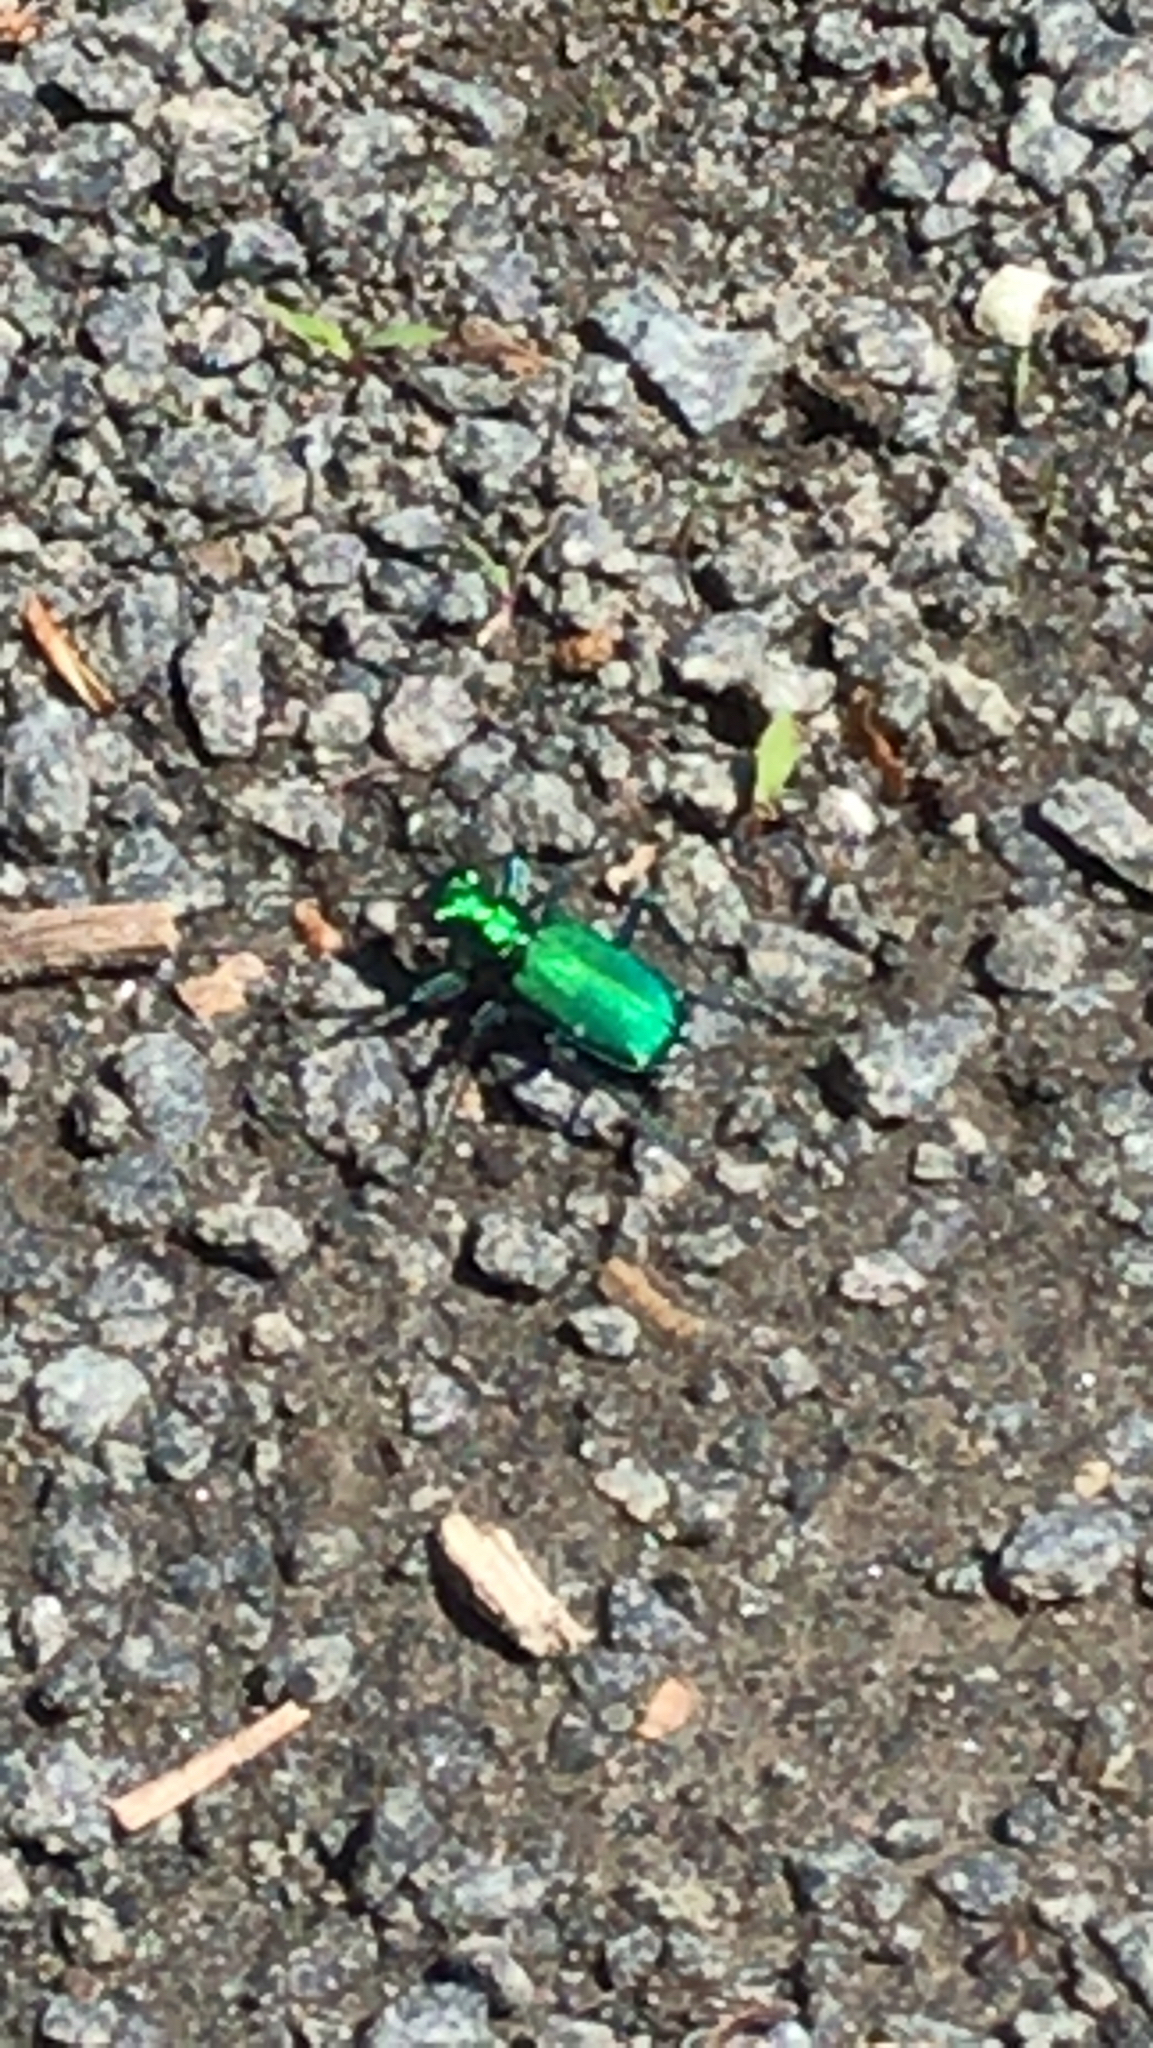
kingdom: Animalia
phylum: Arthropoda
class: Insecta
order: Coleoptera
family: Carabidae
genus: Cicindela
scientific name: Cicindela sexguttata
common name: Six-spotted tiger beetle
